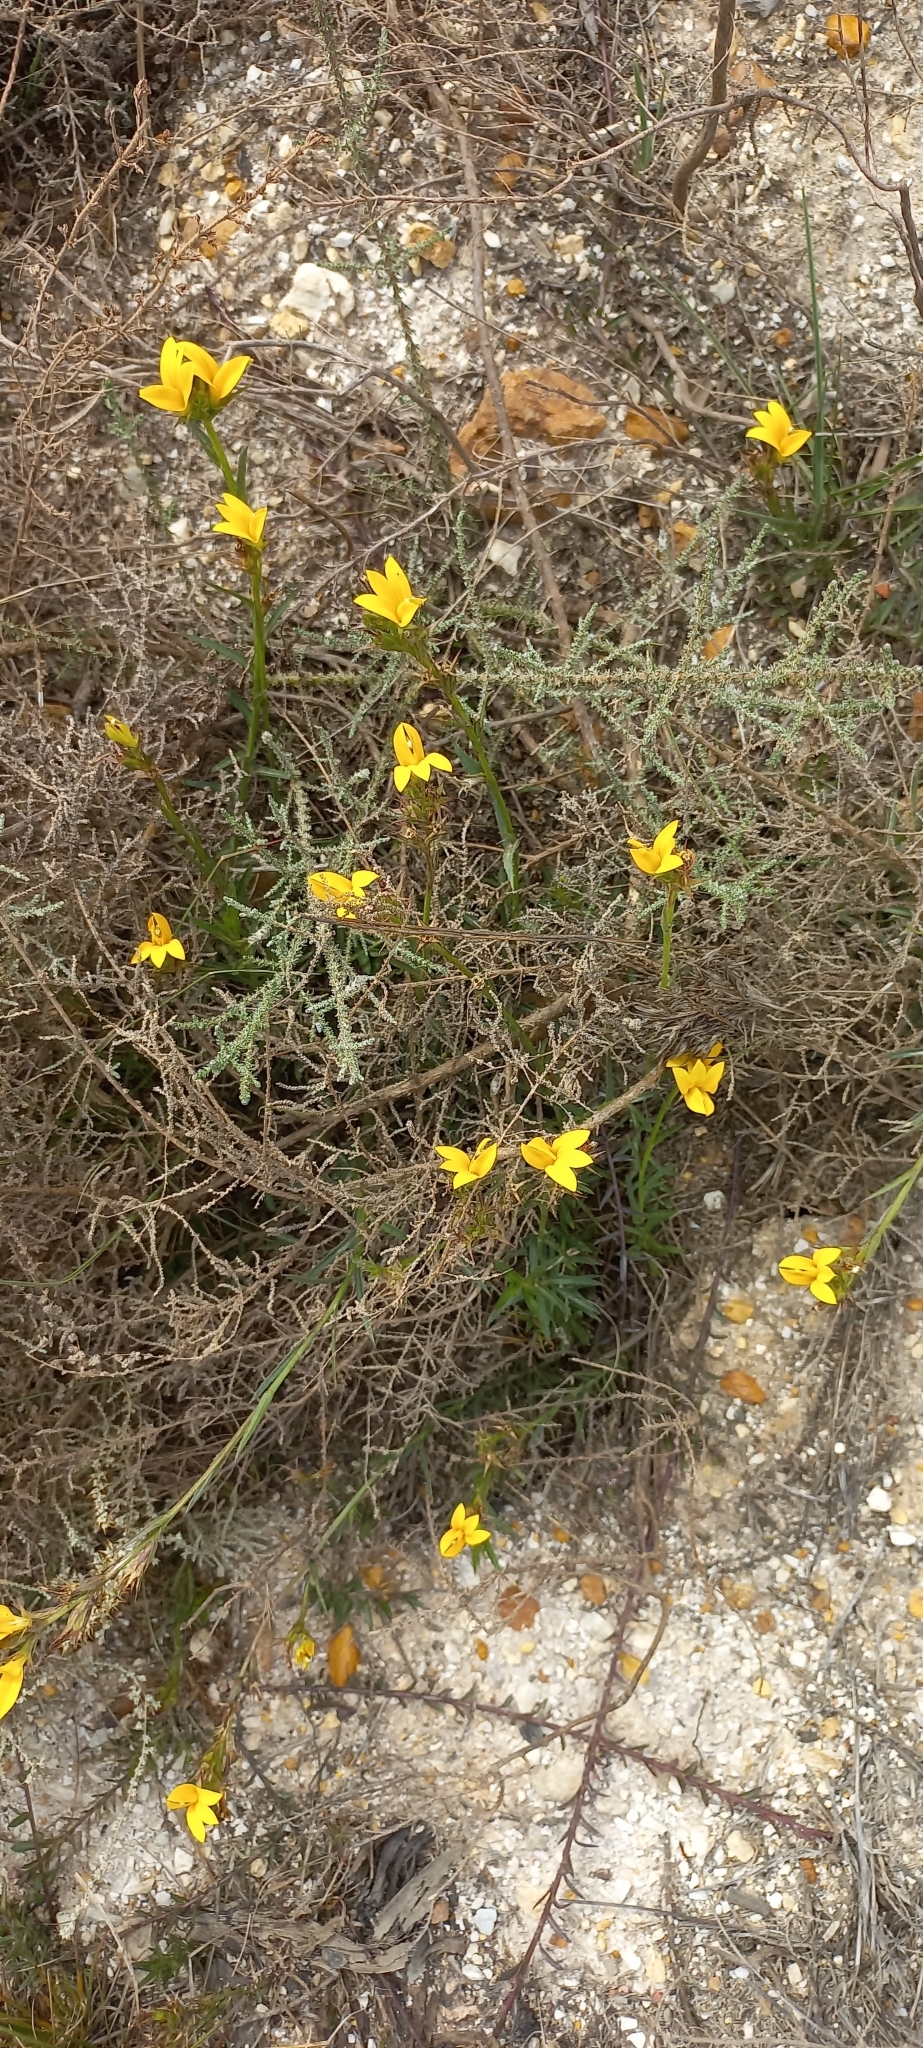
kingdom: Plantae
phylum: Tracheophyta
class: Magnoliopsida
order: Asterales
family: Campanulaceae
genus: Monopsis
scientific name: Monopsis lutea
